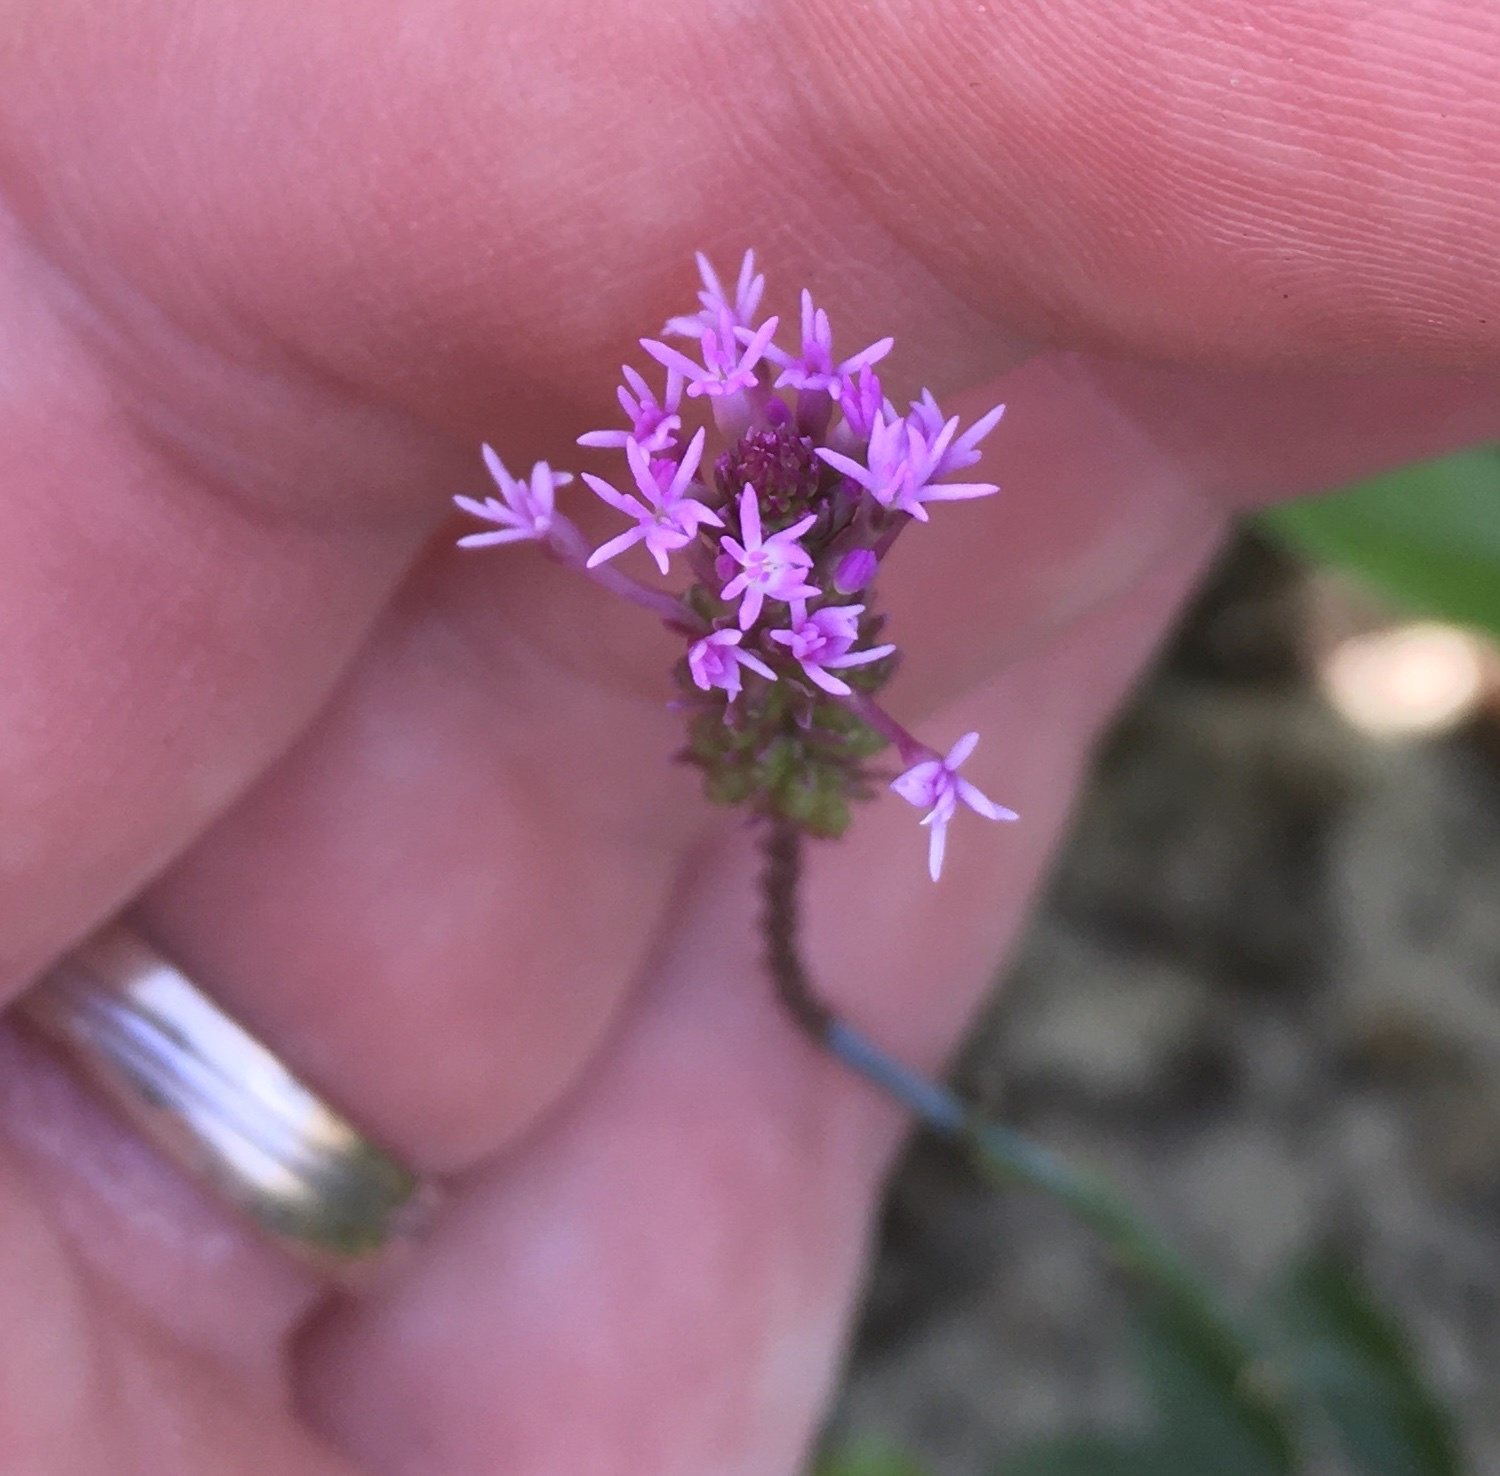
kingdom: Plantae
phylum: Tracheophyta
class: Magnoliopsida
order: Fabales
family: Polygalaceae
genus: Polygala
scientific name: Polygala incarnata
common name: Pink milkwort
